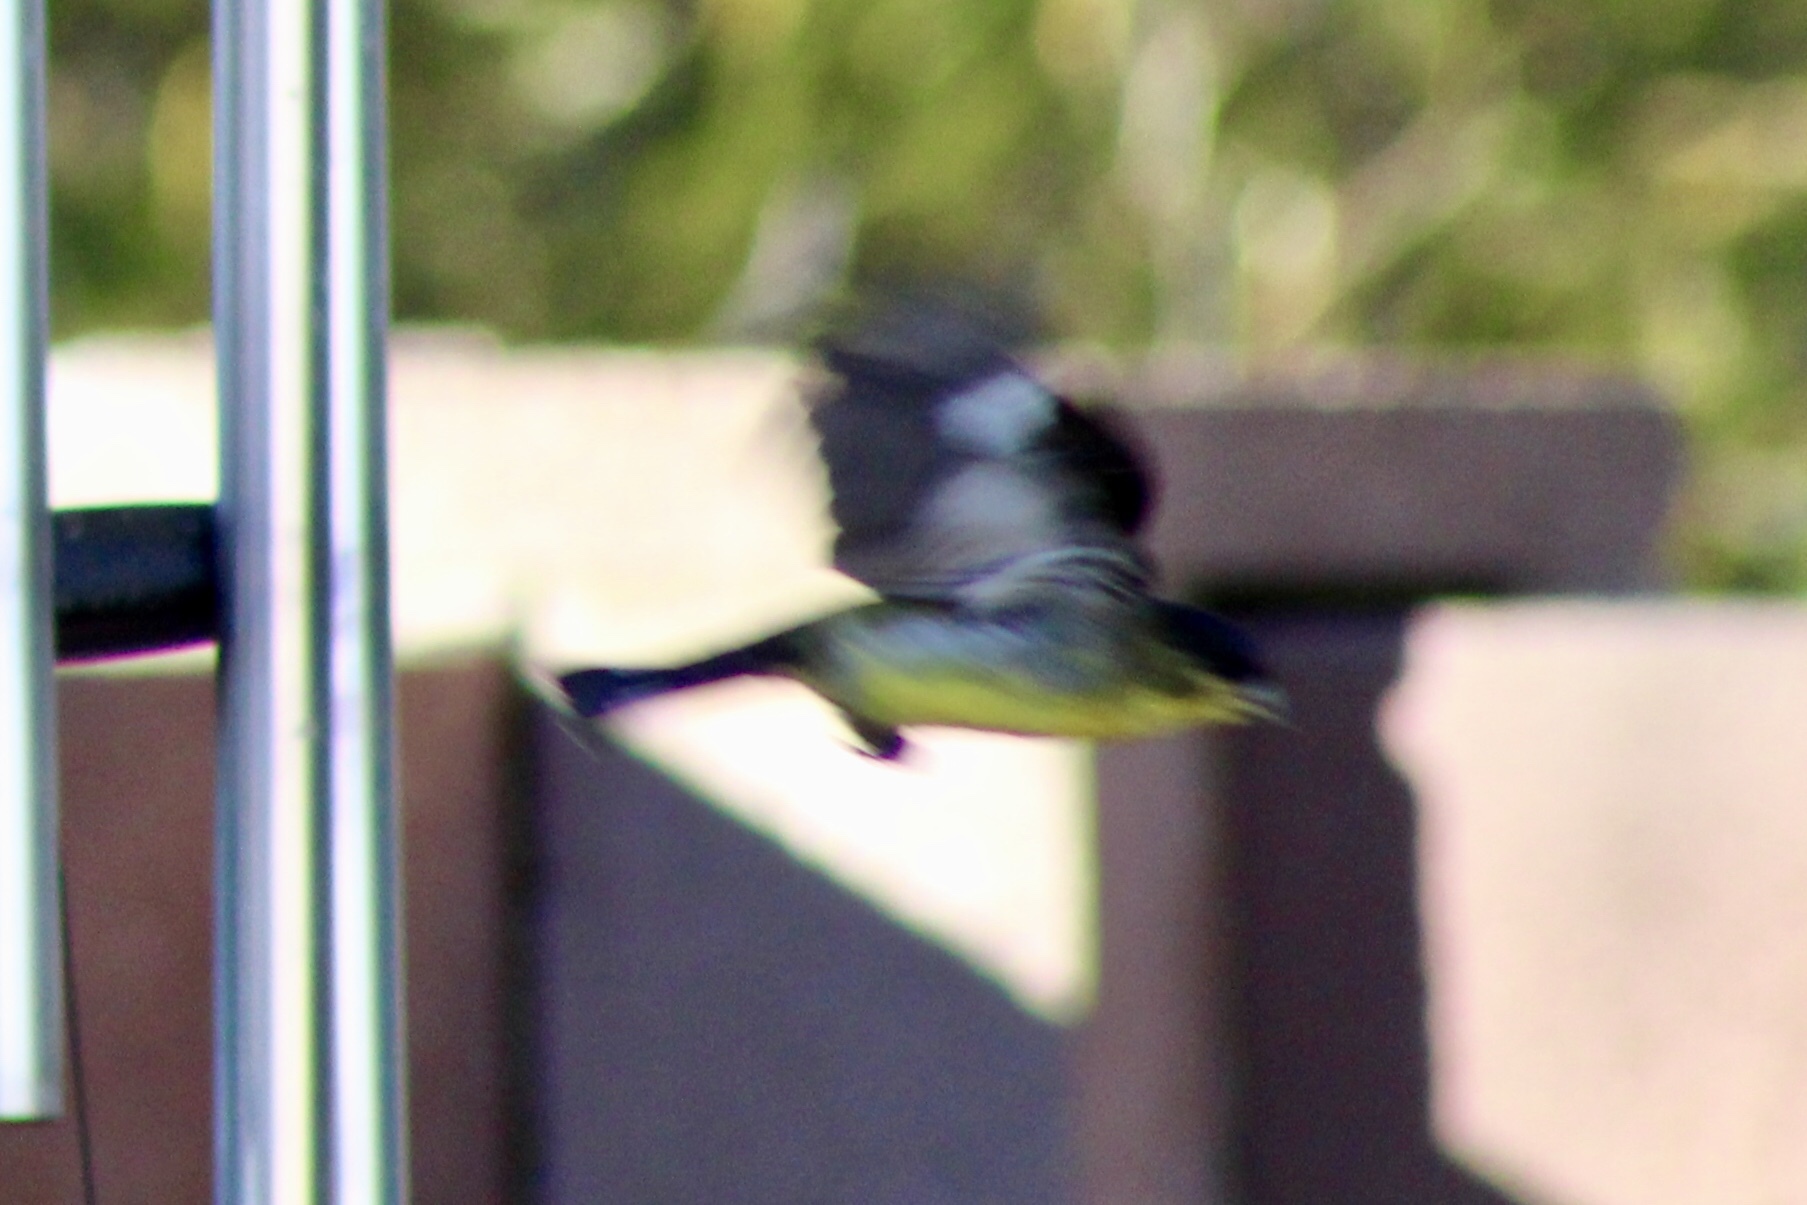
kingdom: Animalia
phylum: Chordata
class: Aves
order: Passeriformes
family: Fringillidae
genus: Spinus
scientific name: Spinus psaltria
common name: Lesser goldfinch
